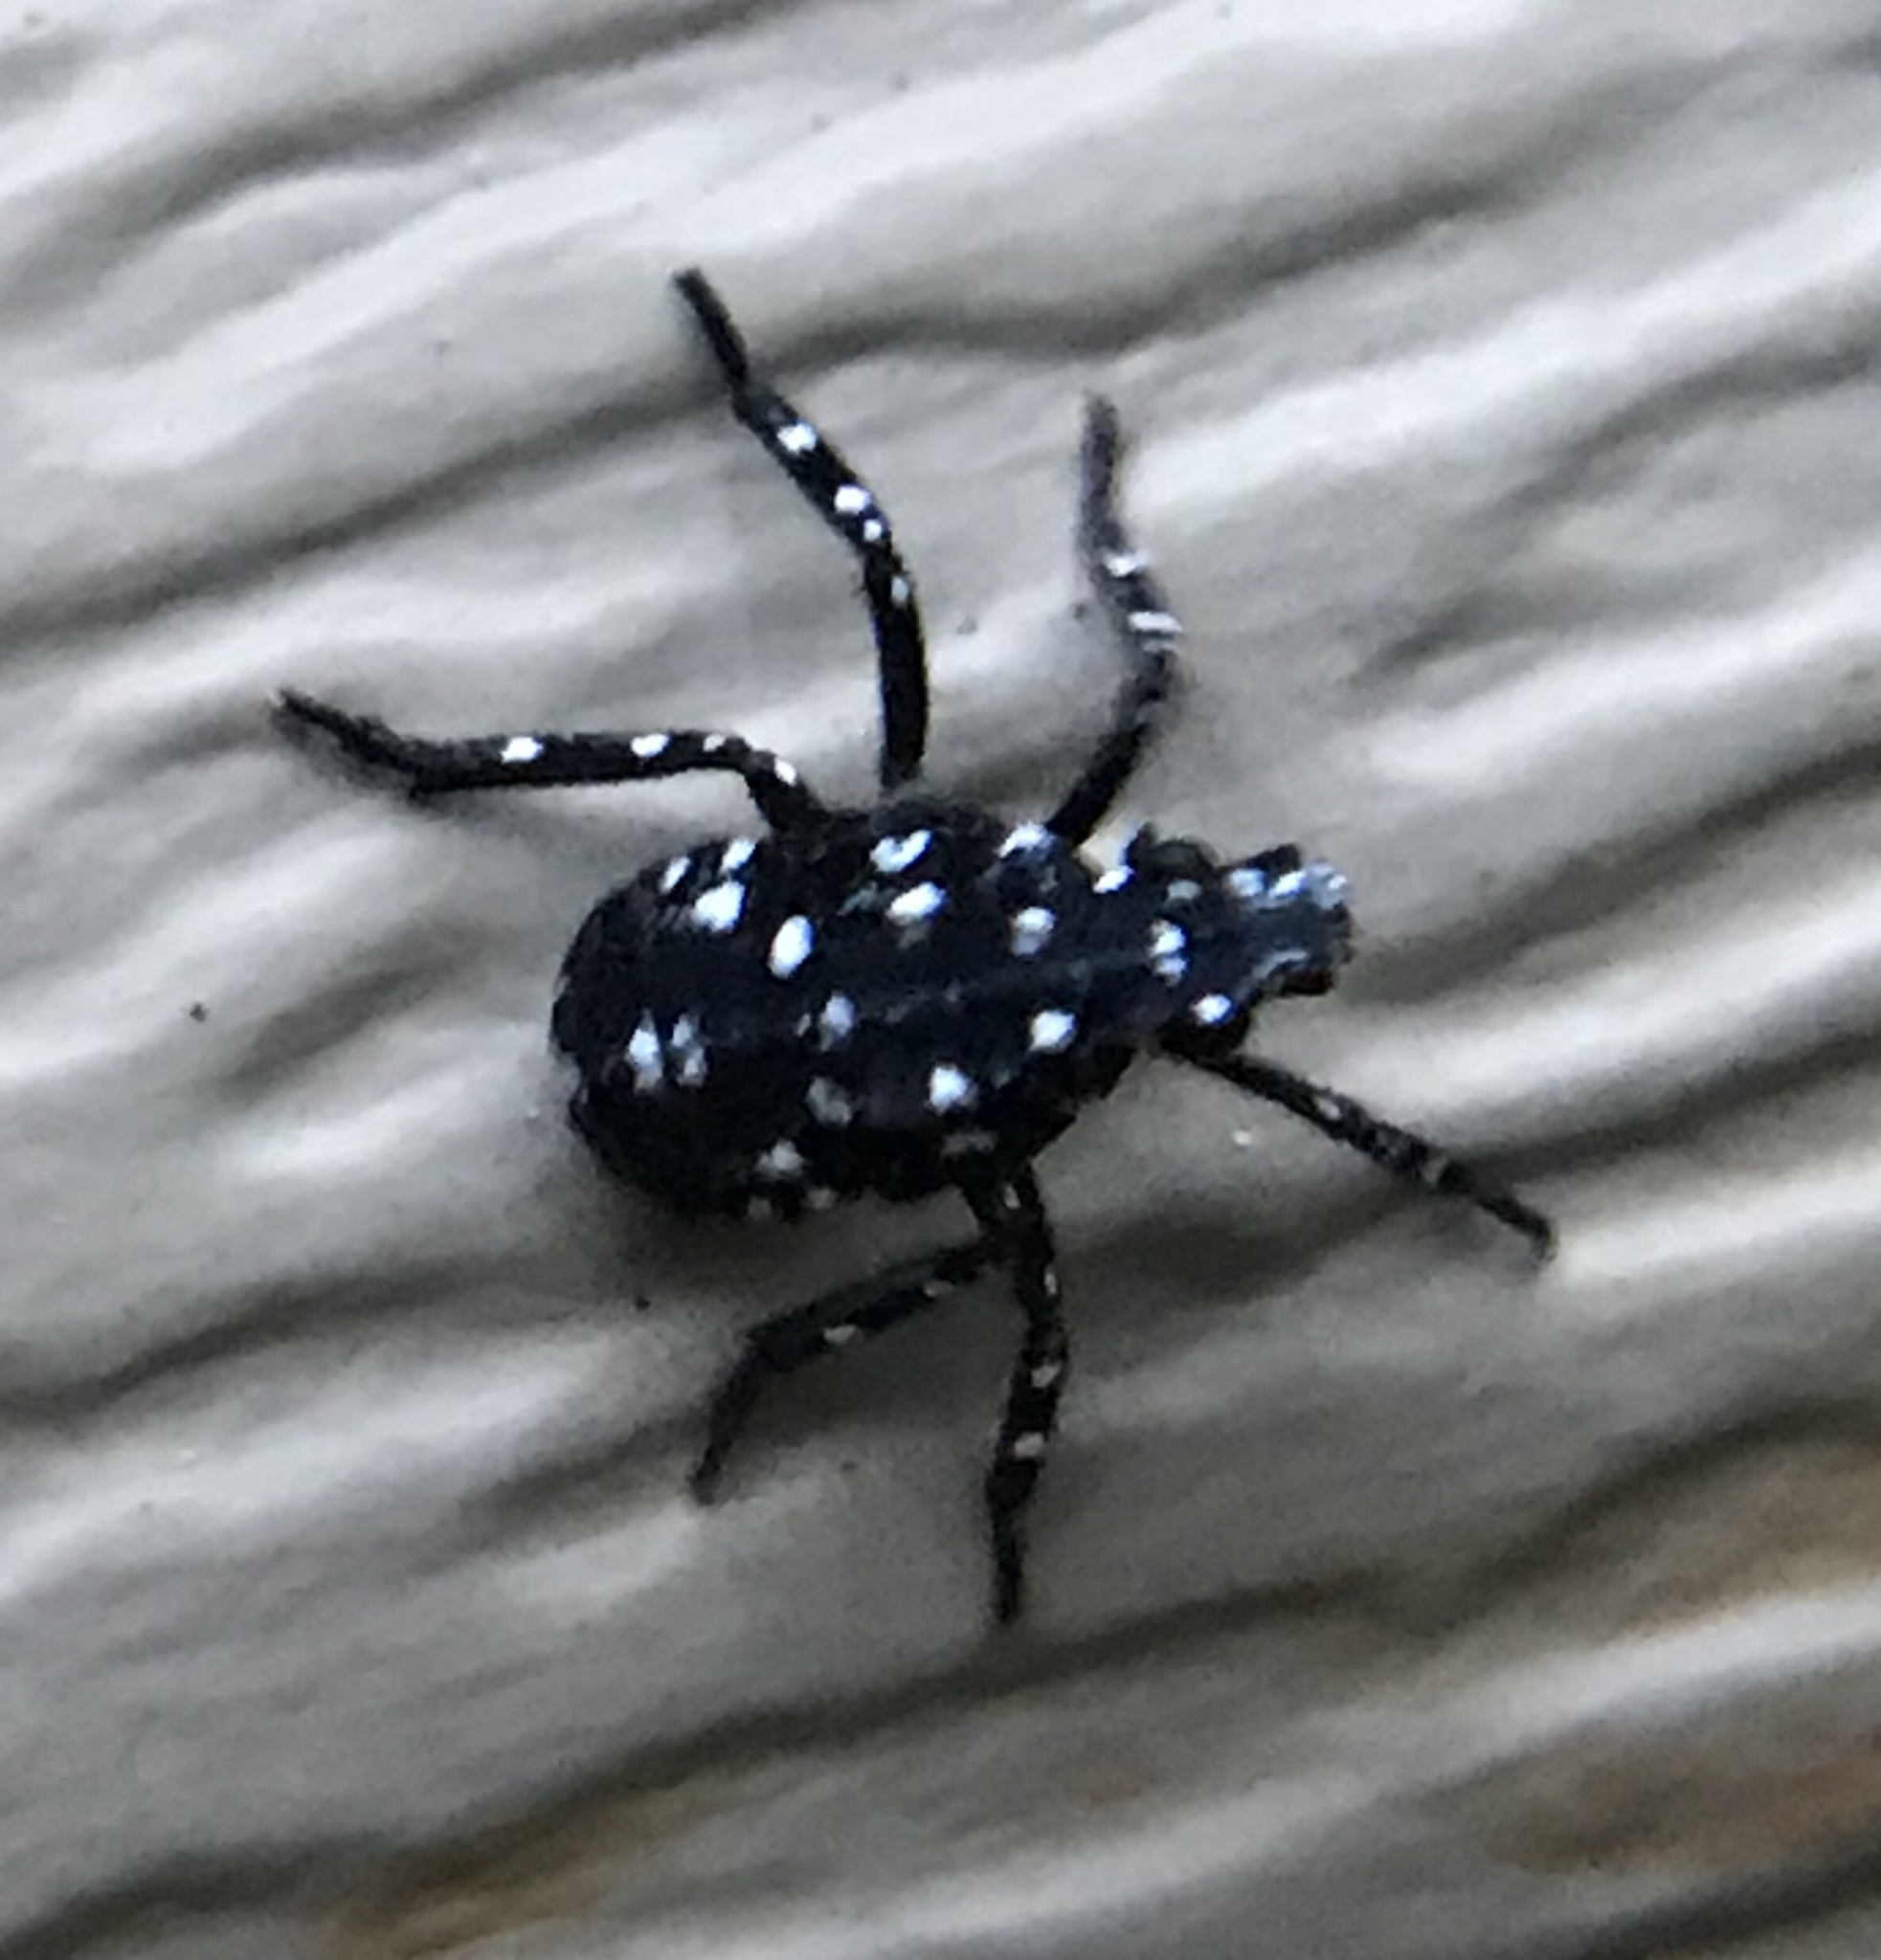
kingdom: Animalia
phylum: Arthropoda
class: Insecta
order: Hemiptera
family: Fulgoridae
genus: Lycorma
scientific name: Lycorma delicatula
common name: Spotted lanternfly
